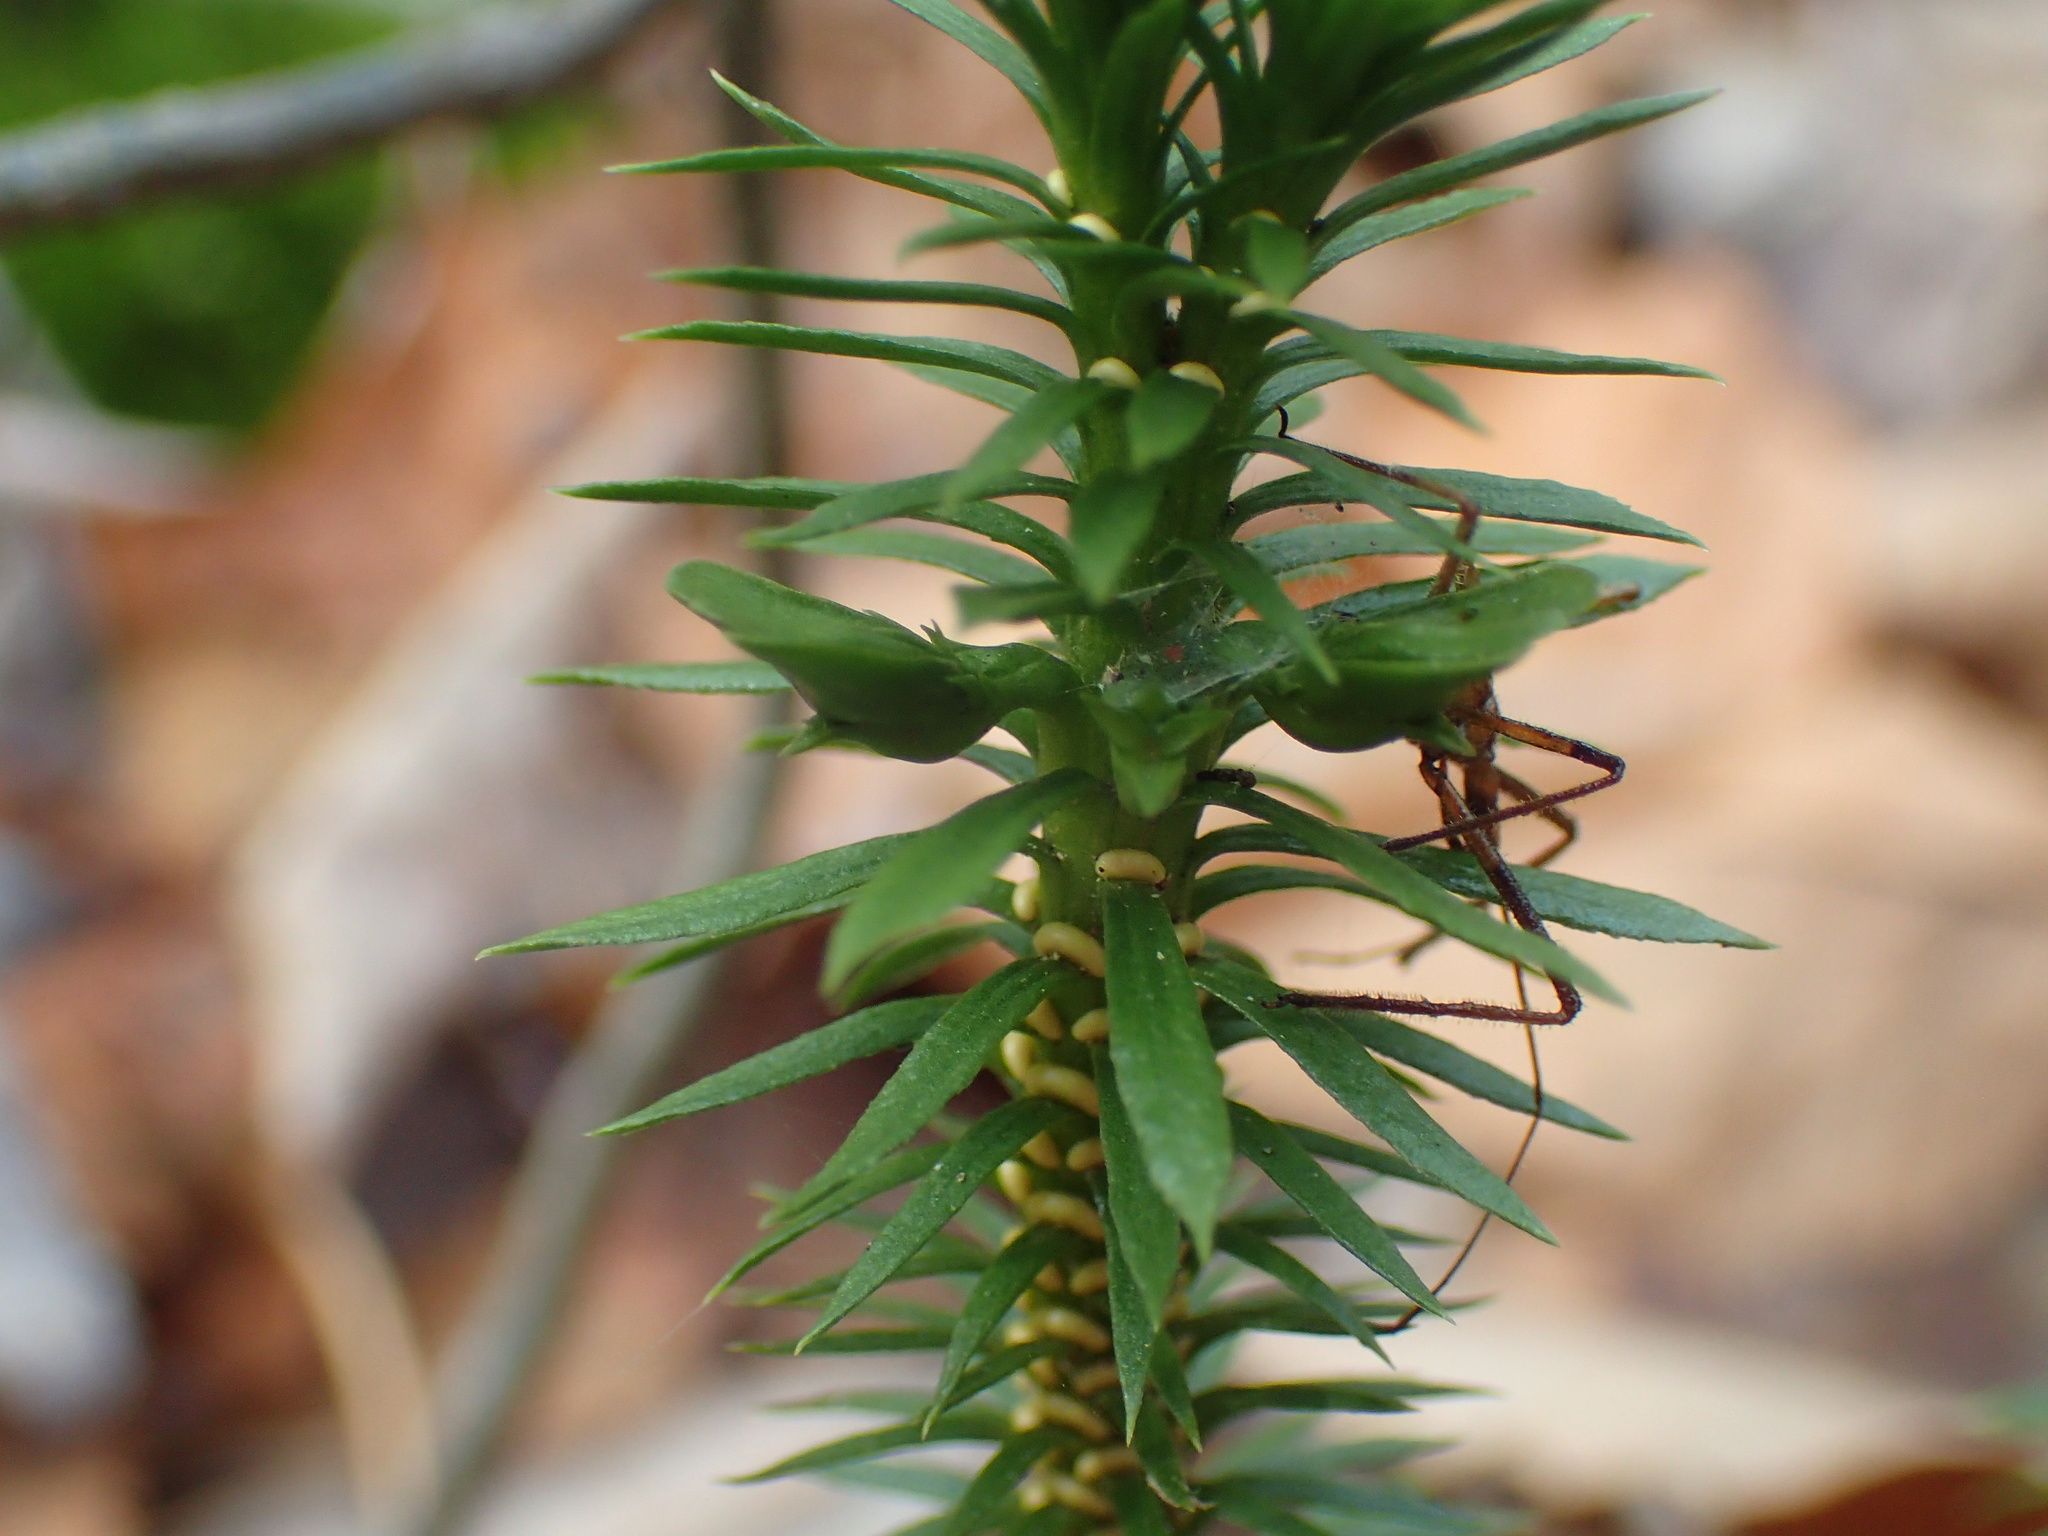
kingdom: Plantae
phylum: Tracheophyta
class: Lycopodiopsida
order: Lycopodiales
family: Lycopodiaceae
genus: Huperzia
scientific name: Huperzia lucidula
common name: Shining clubmoss
